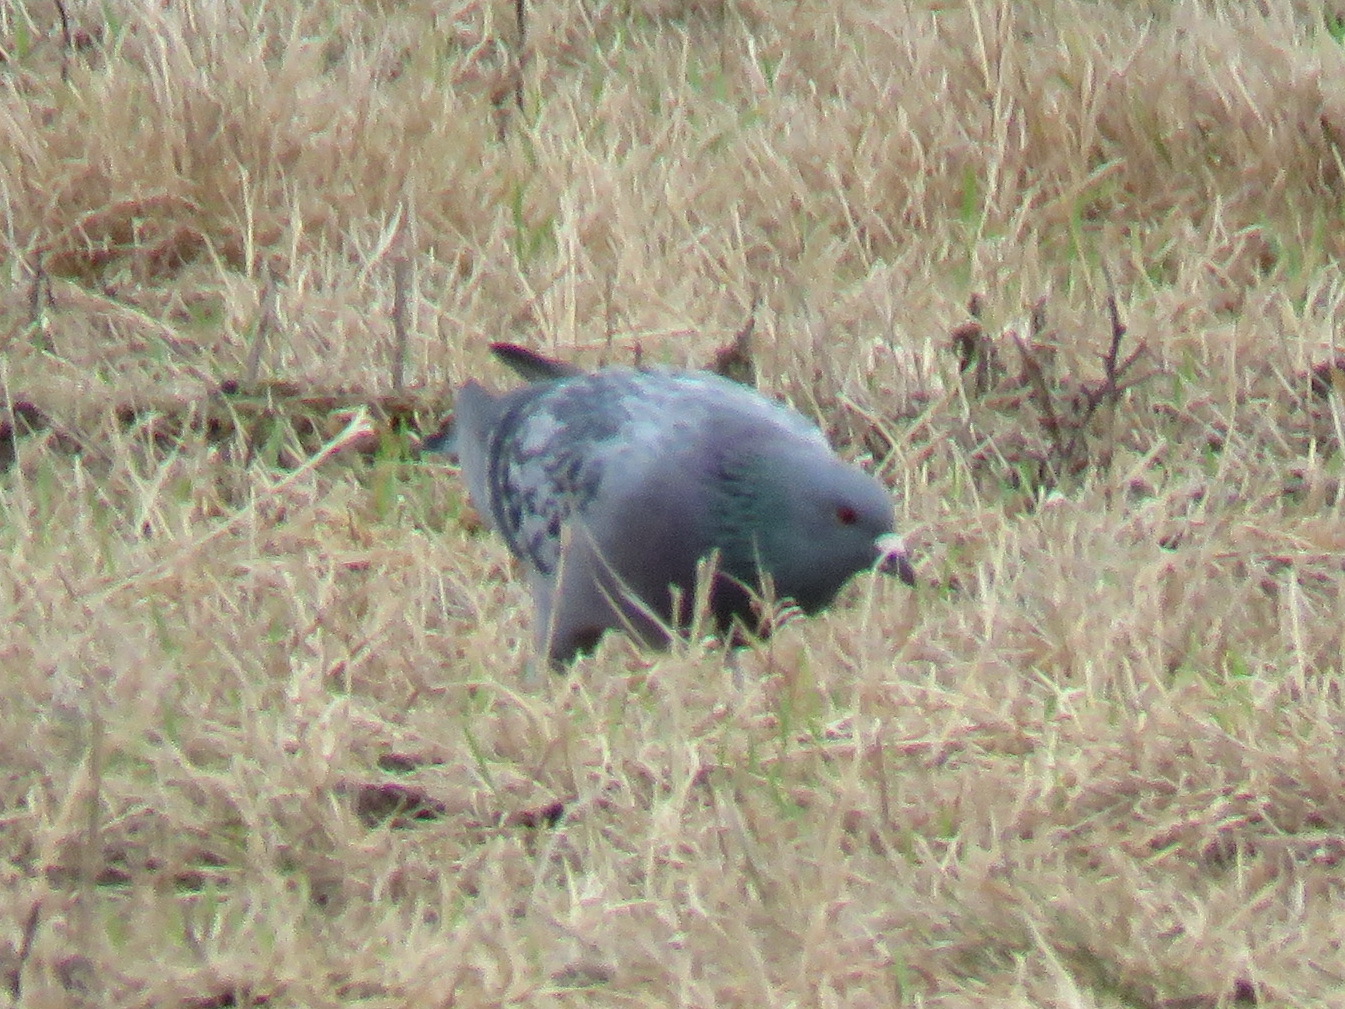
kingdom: Animalia
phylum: Chordata
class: Aves
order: Columbiformes
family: Columbidae
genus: Columba
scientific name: Columba livia
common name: Rock pigeon
